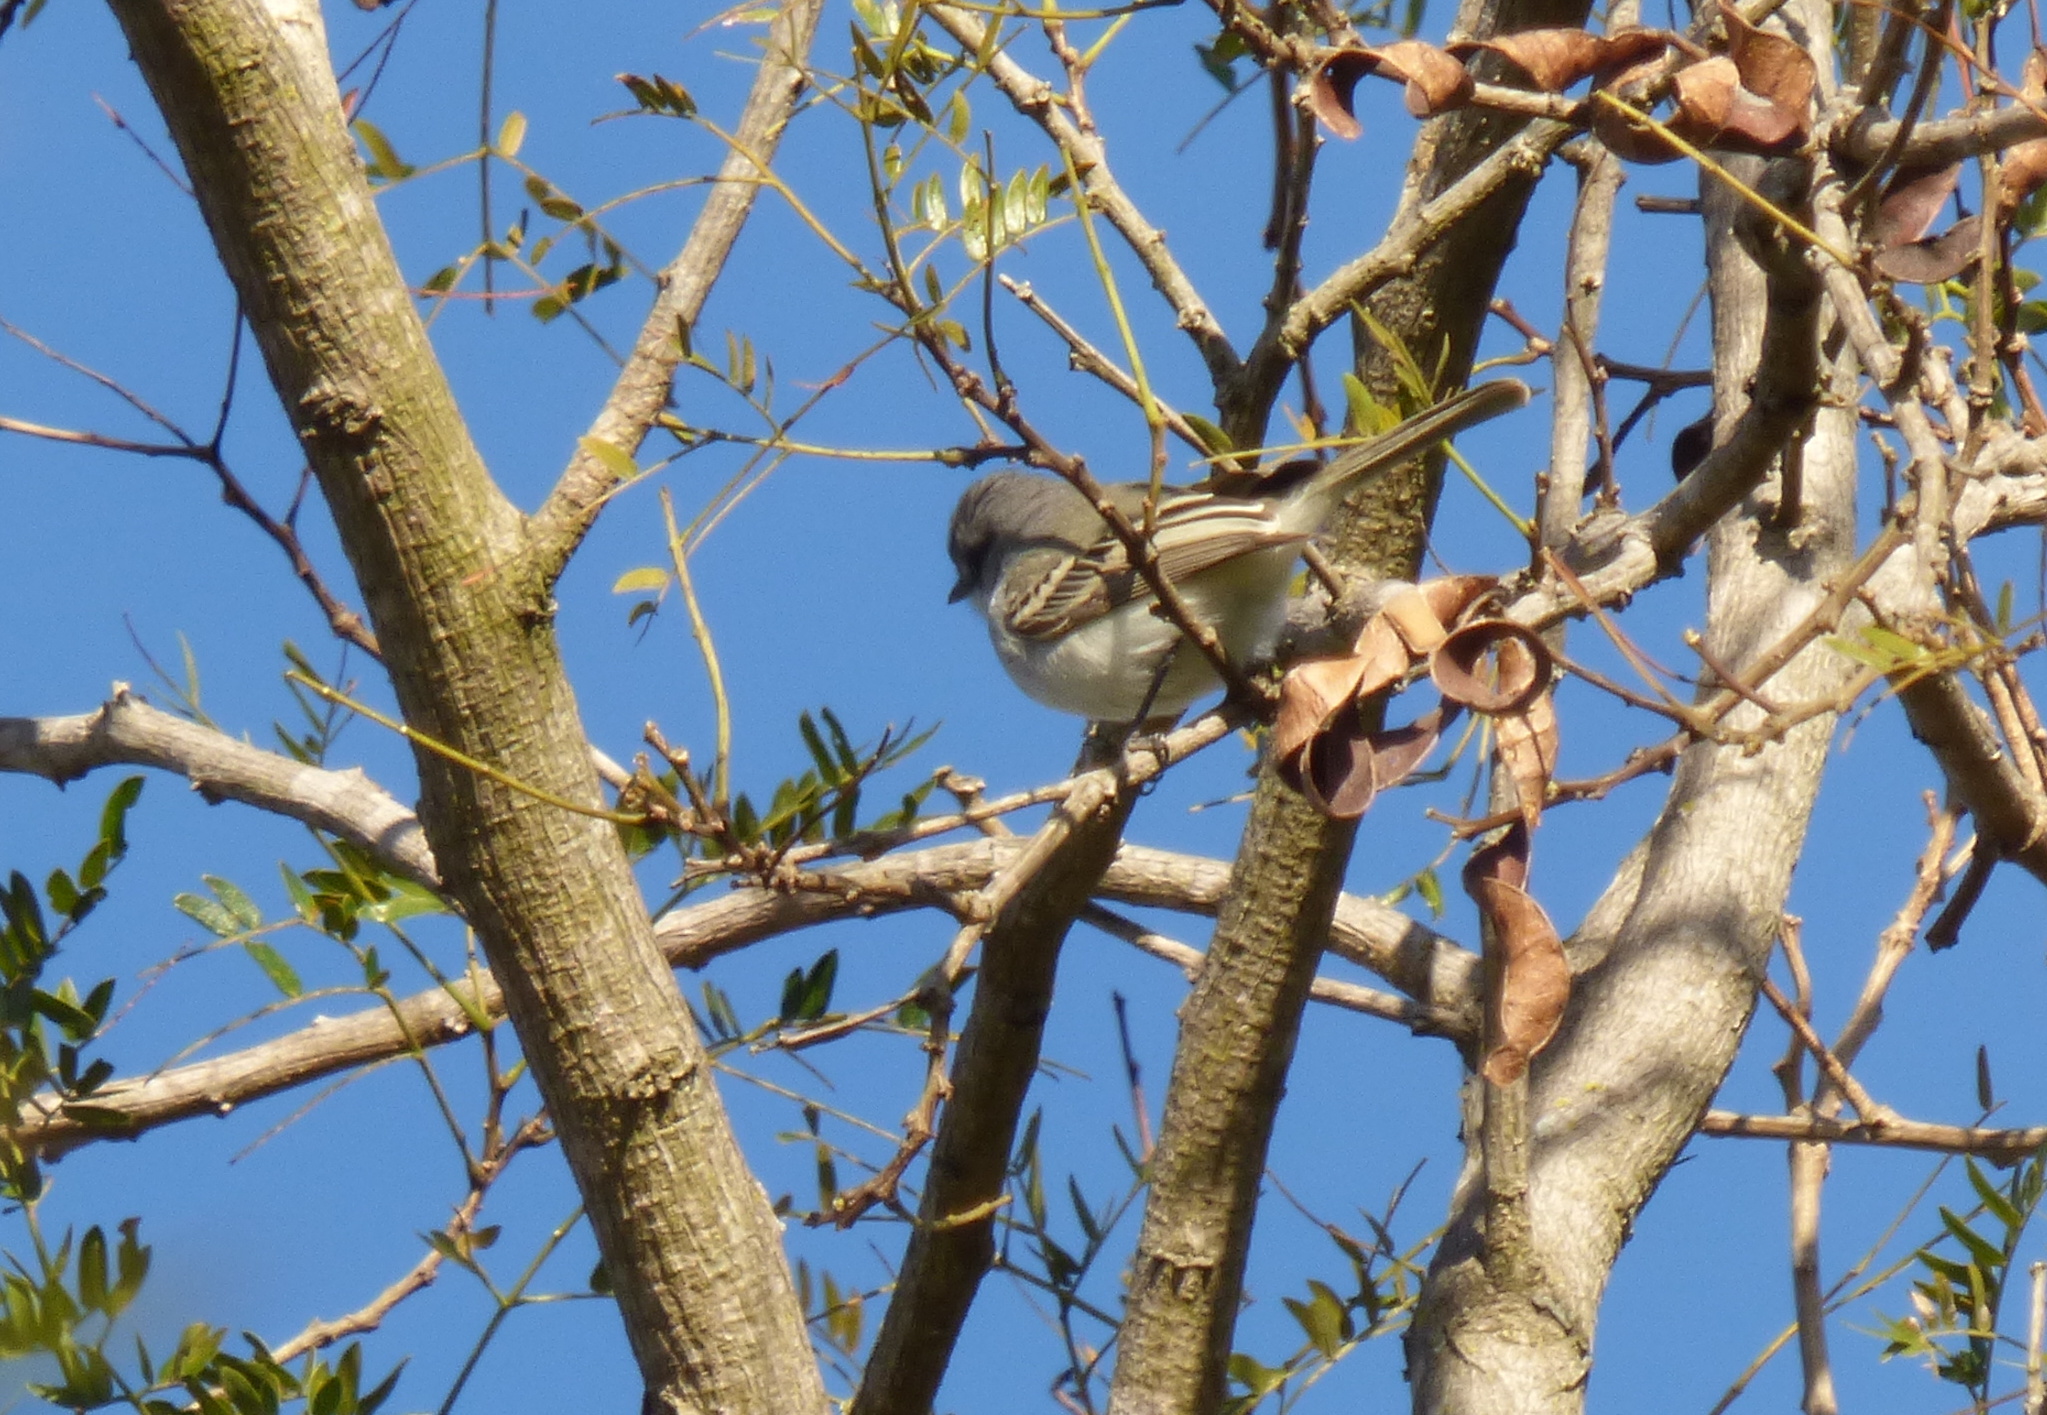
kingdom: Animalia
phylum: Chordata
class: Aves
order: Passeriformes
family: Tyrannidae
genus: Suiriri
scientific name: Suiriri suiriri
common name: Suiriri flycatcher
